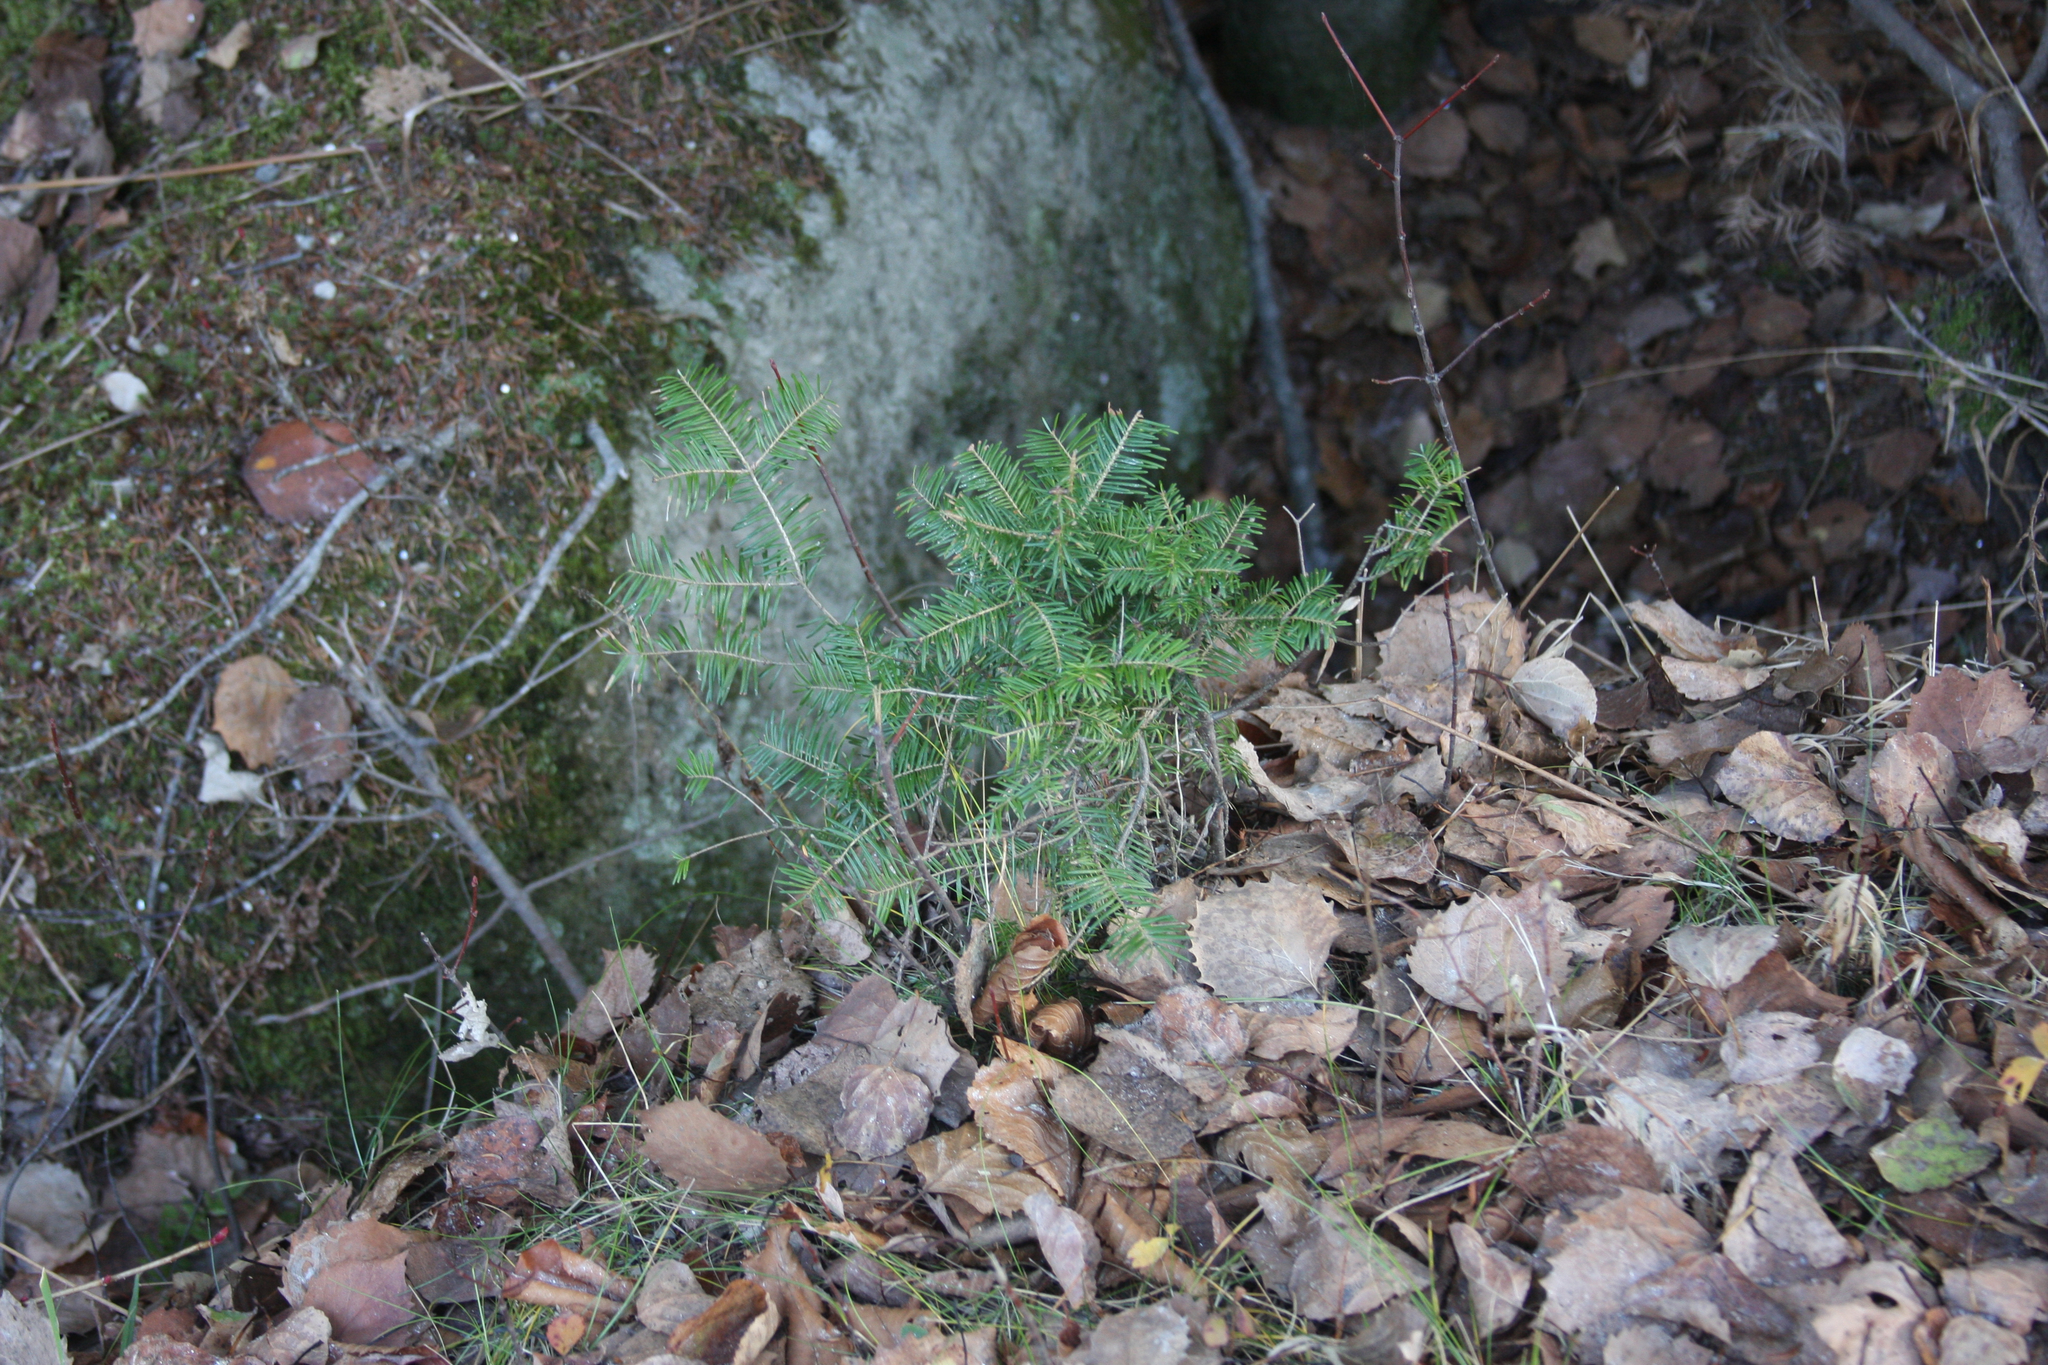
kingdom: Plantae
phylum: Tracheophyta
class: Pinopsida
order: Pinales
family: Pinaceae
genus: Abies
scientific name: Abies balsamea
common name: Balsam fir
